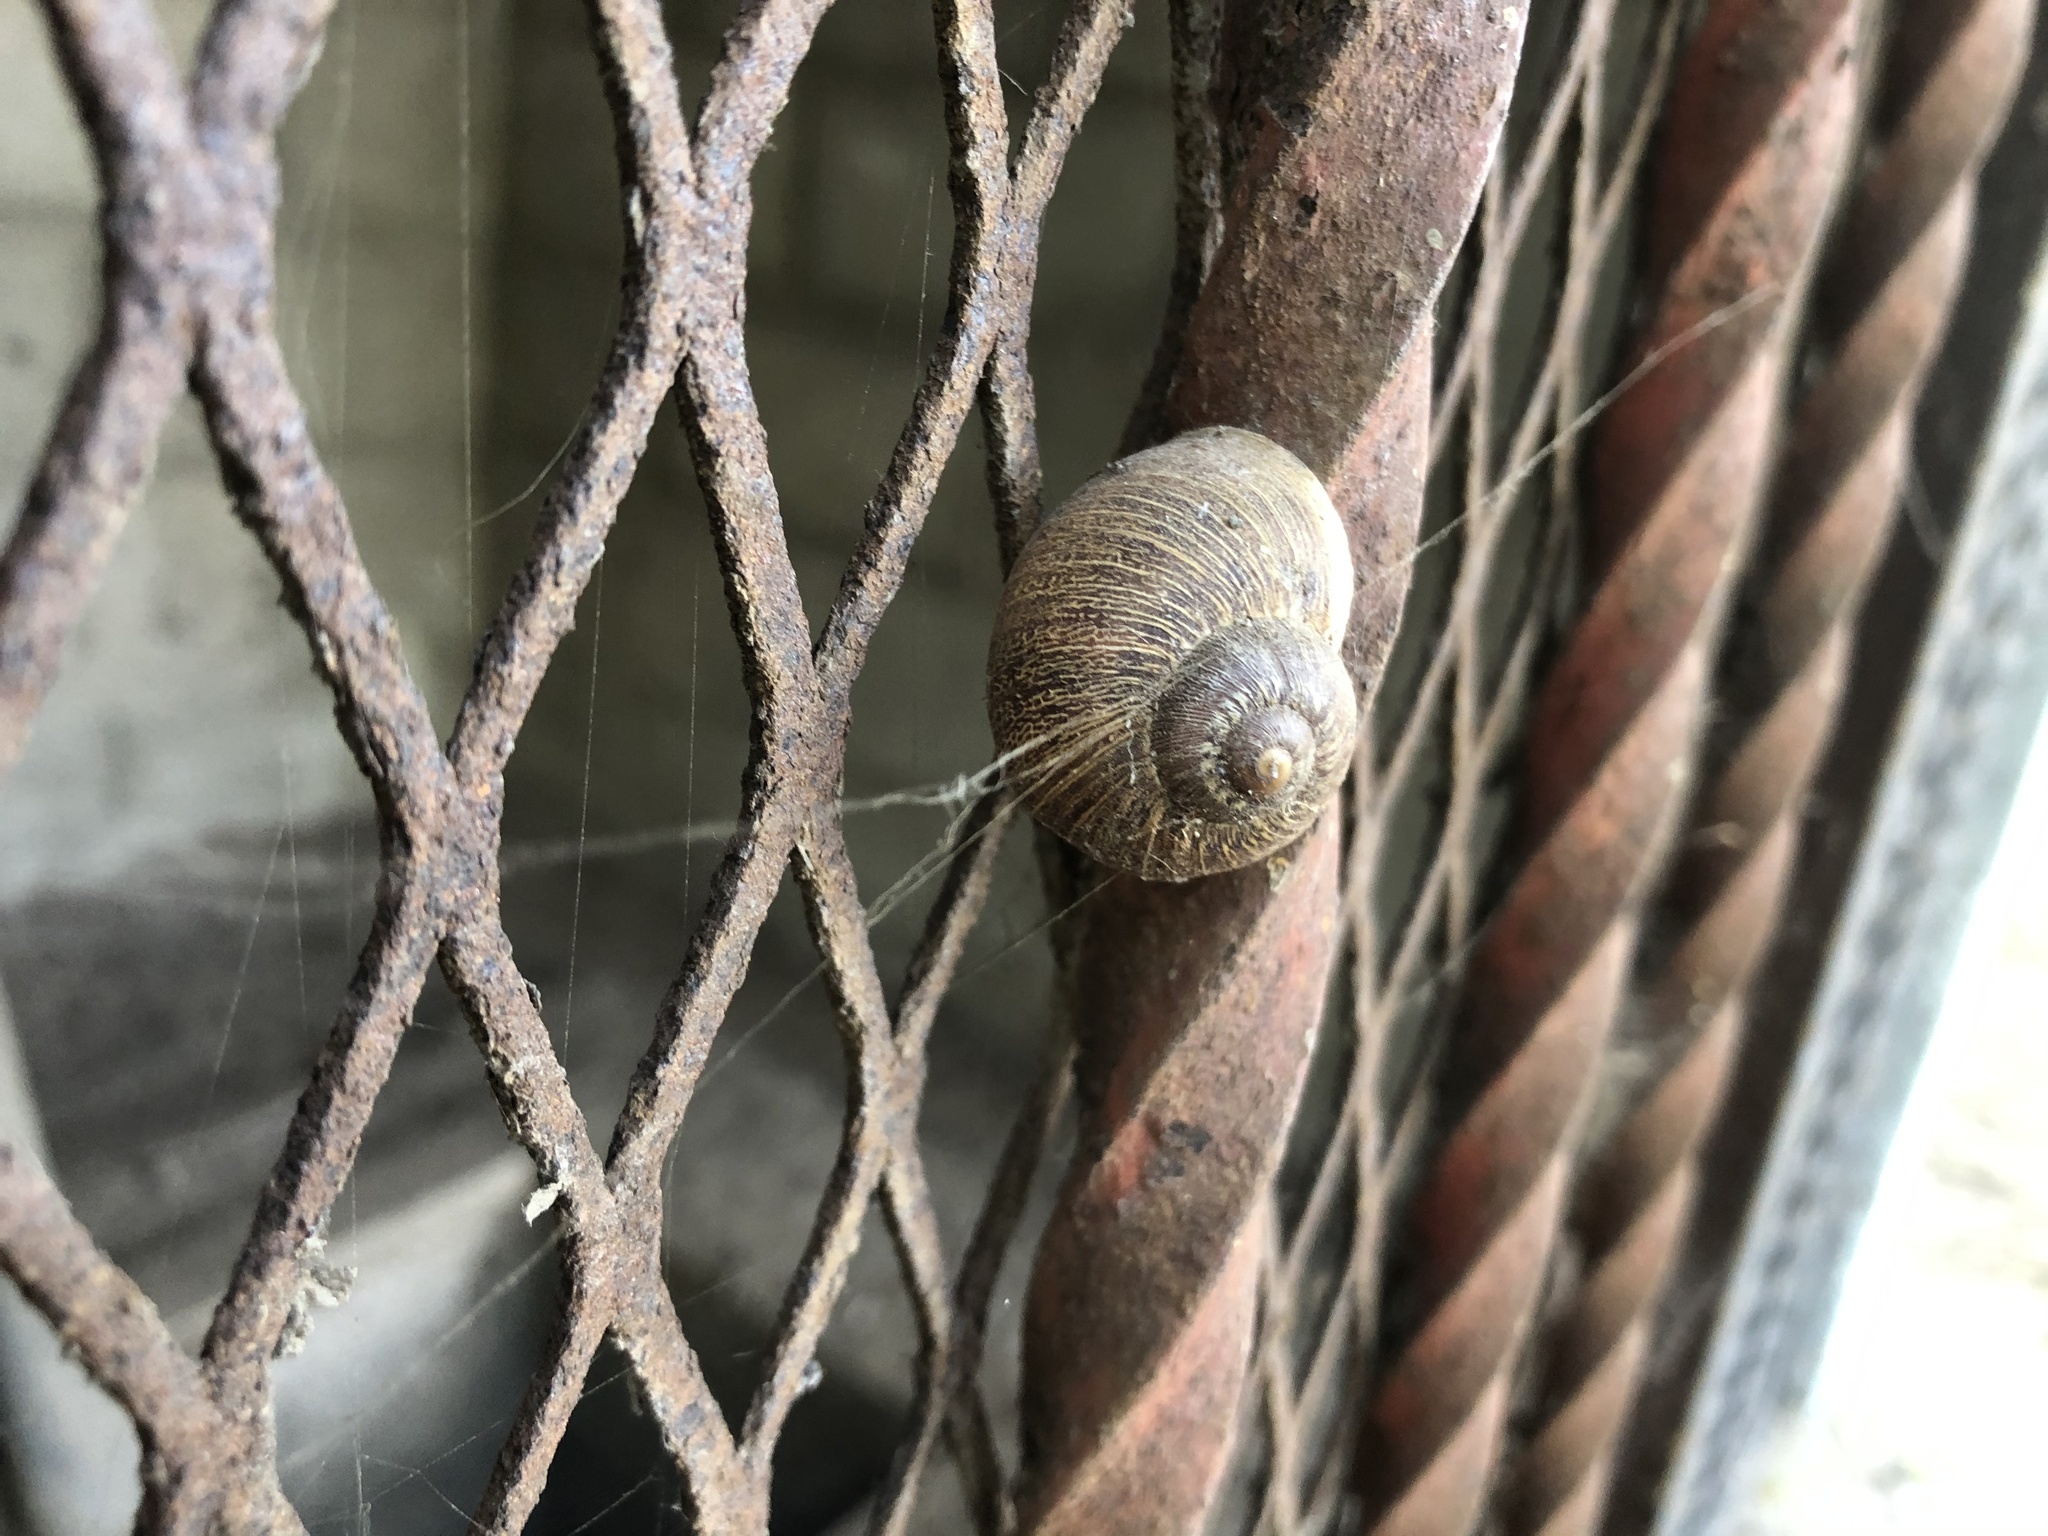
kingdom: Animalia
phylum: Mollusca
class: Gastropoda
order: Stylommatophora
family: Helicidae
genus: Cornu
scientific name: Cornu aspersum
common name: Brown garden snail
